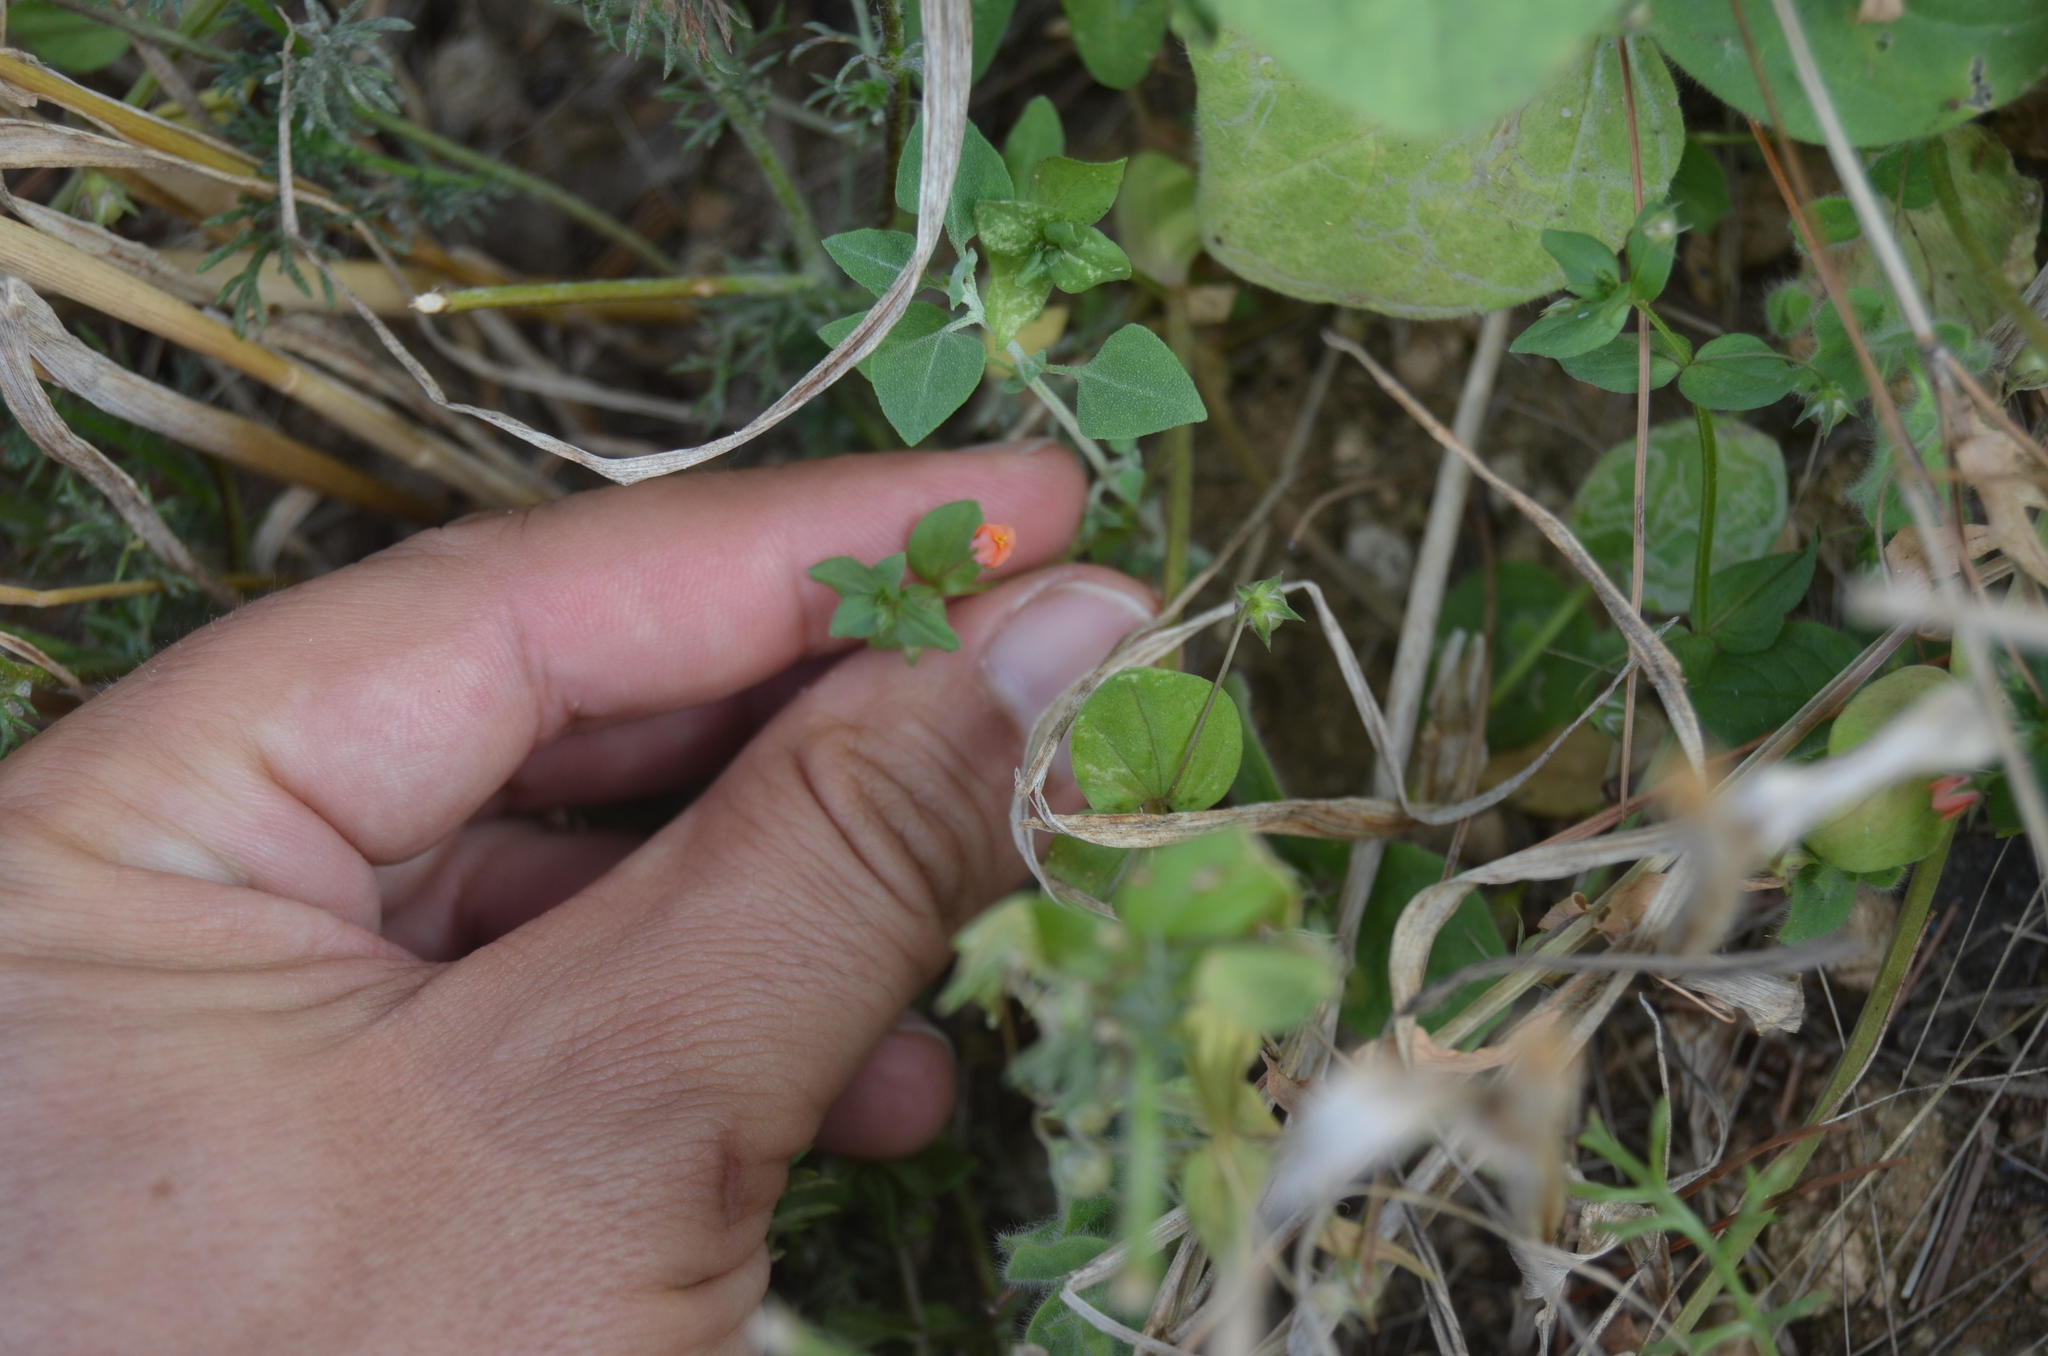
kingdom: Plantae
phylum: Tracheophyta
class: Magnoliopsida
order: Ericales
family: Primulaceae
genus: Lysimachia
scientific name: Lysimachia arvensis
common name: Scarlet pimpernel
